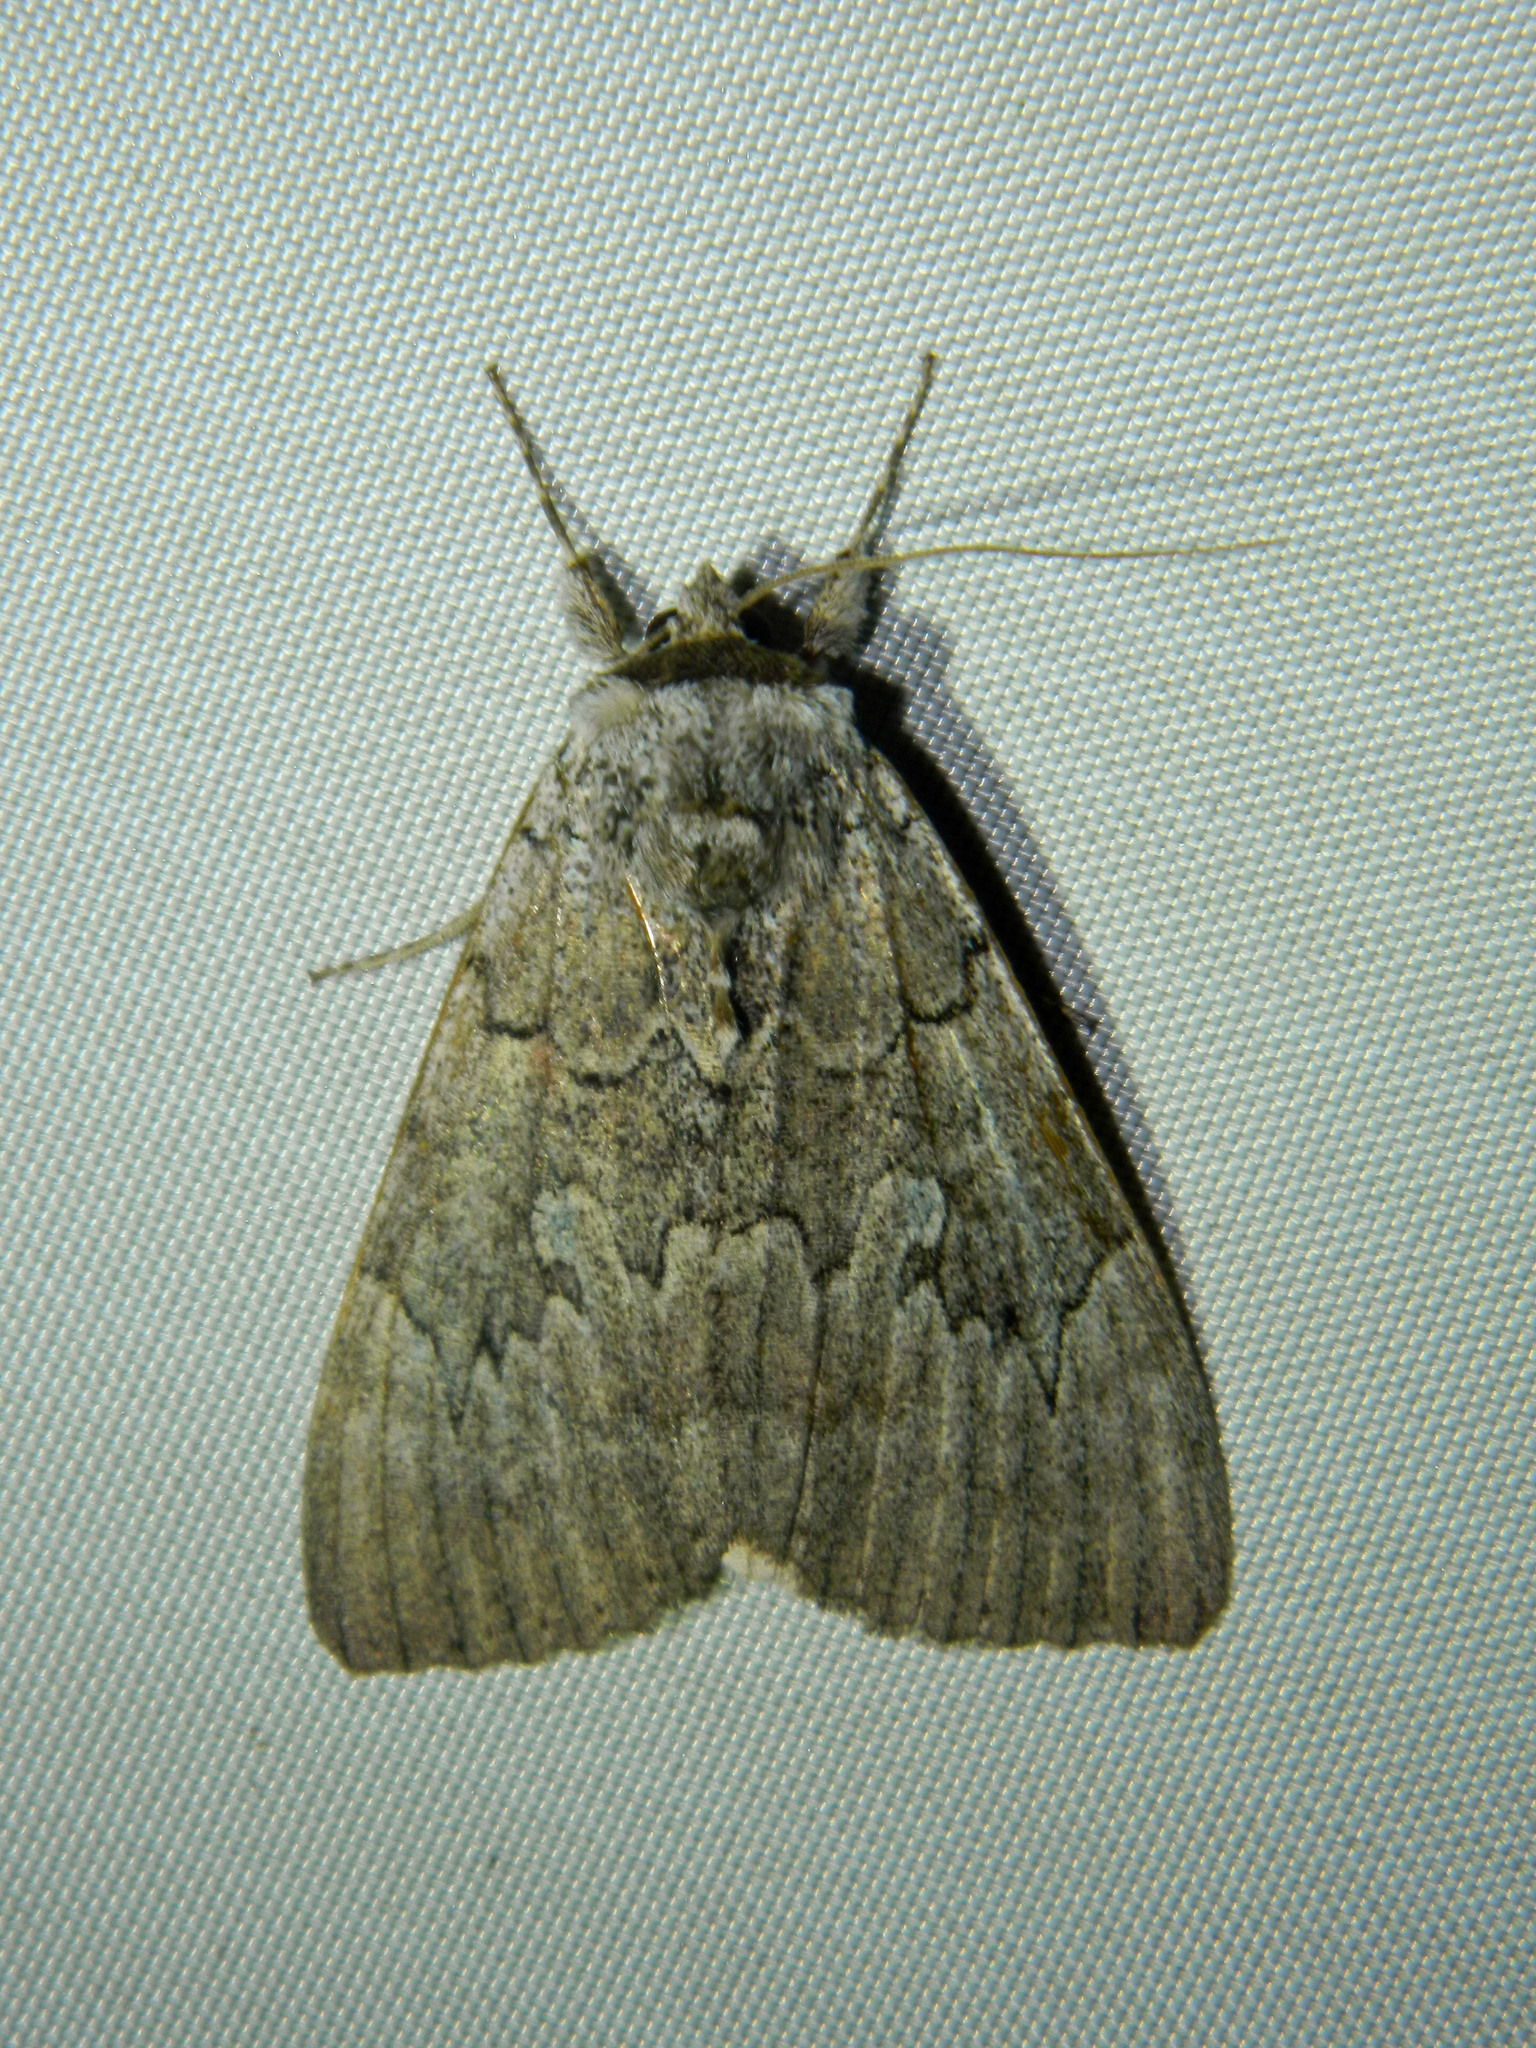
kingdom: Animalia
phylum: Arthropoda
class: Insecta
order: Lepidoptera
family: Erebidae
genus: Catocala
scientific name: Catocala concumbens
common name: Pink underwing
